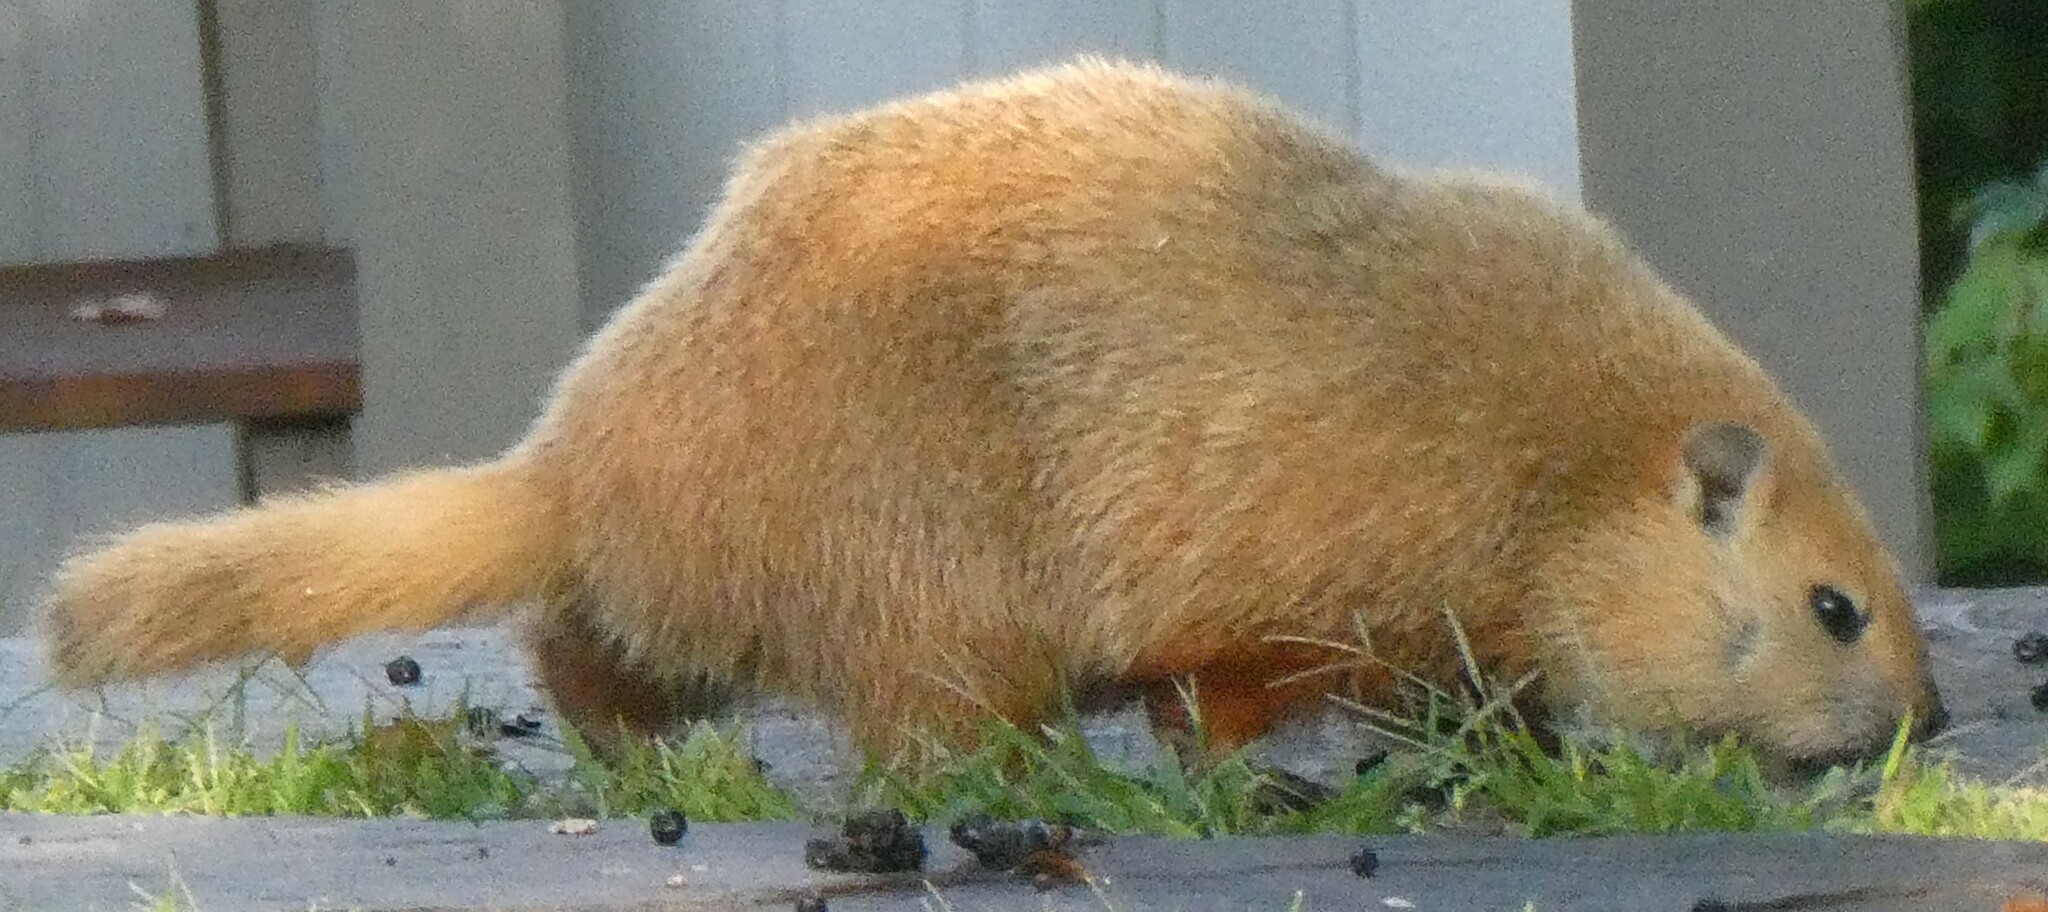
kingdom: Animalia
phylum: Chordata
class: Mammalia
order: Rodentia
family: Sciuridae
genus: Marmota
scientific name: Marmota monax
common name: Groundhog
